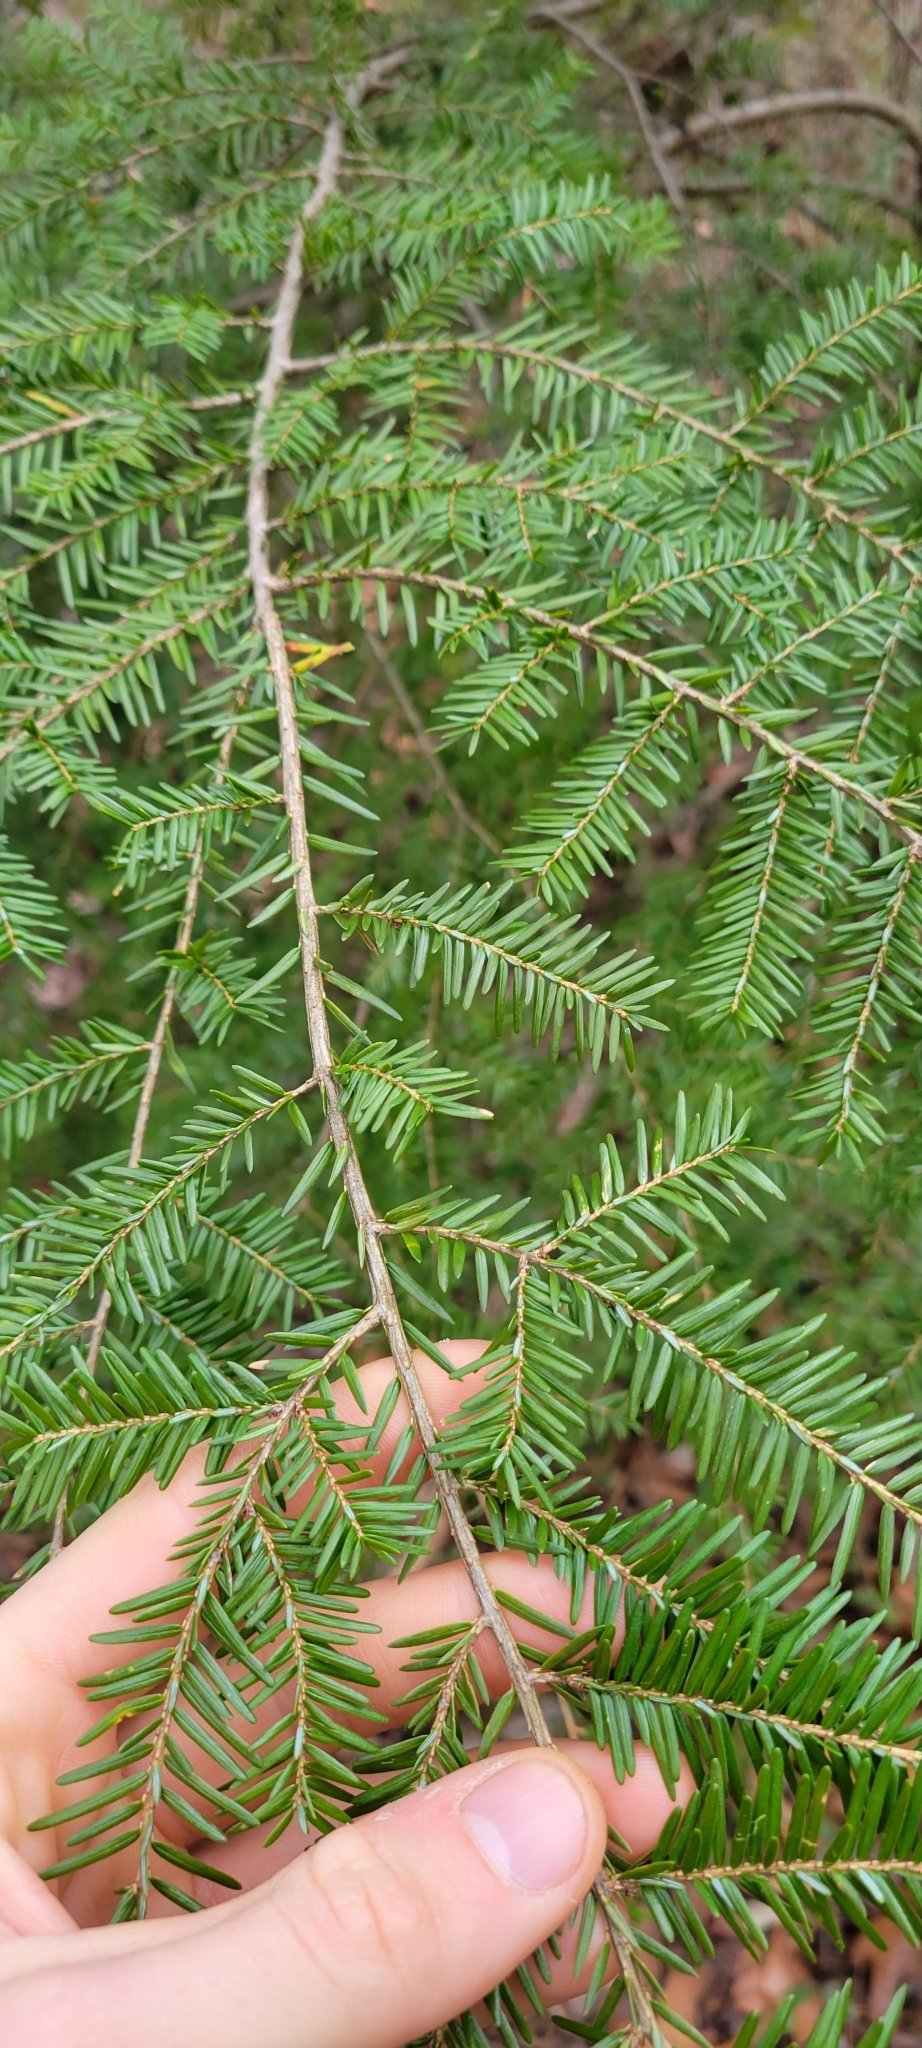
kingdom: Plantae
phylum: Tracheophyta
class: Pinopsida
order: Pinales
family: Pinaceae
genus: Tsuga
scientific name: Tsuga canadensis
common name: Eastern hemlock
